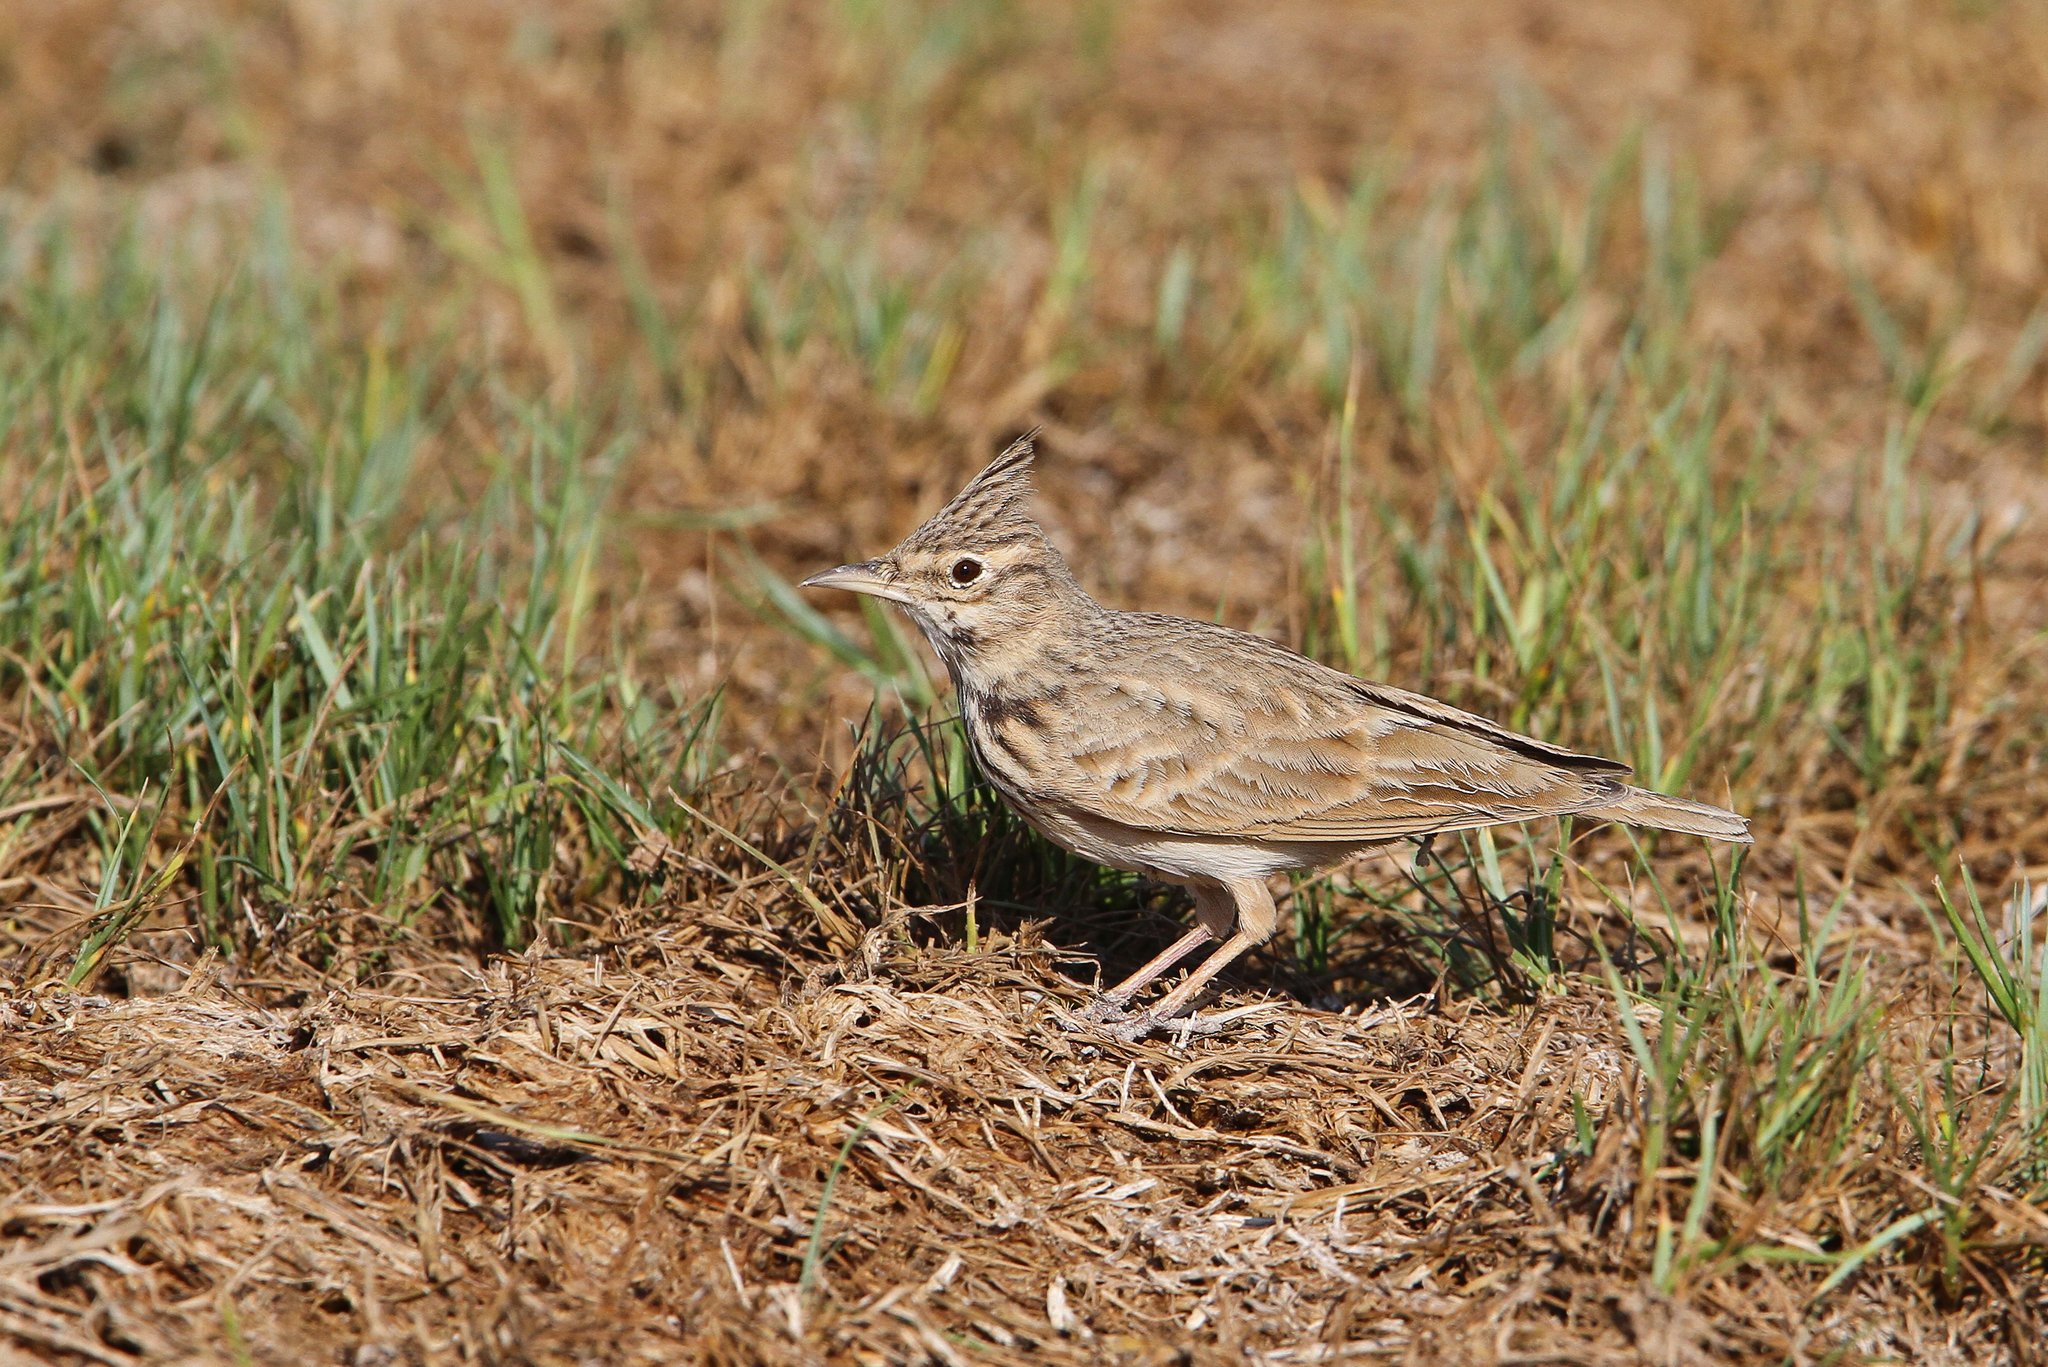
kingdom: Animalia
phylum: Chordata
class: Aves
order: Passeriformes
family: Alaudidae
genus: Galerida
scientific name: Galerida cristata
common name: Crested lark
